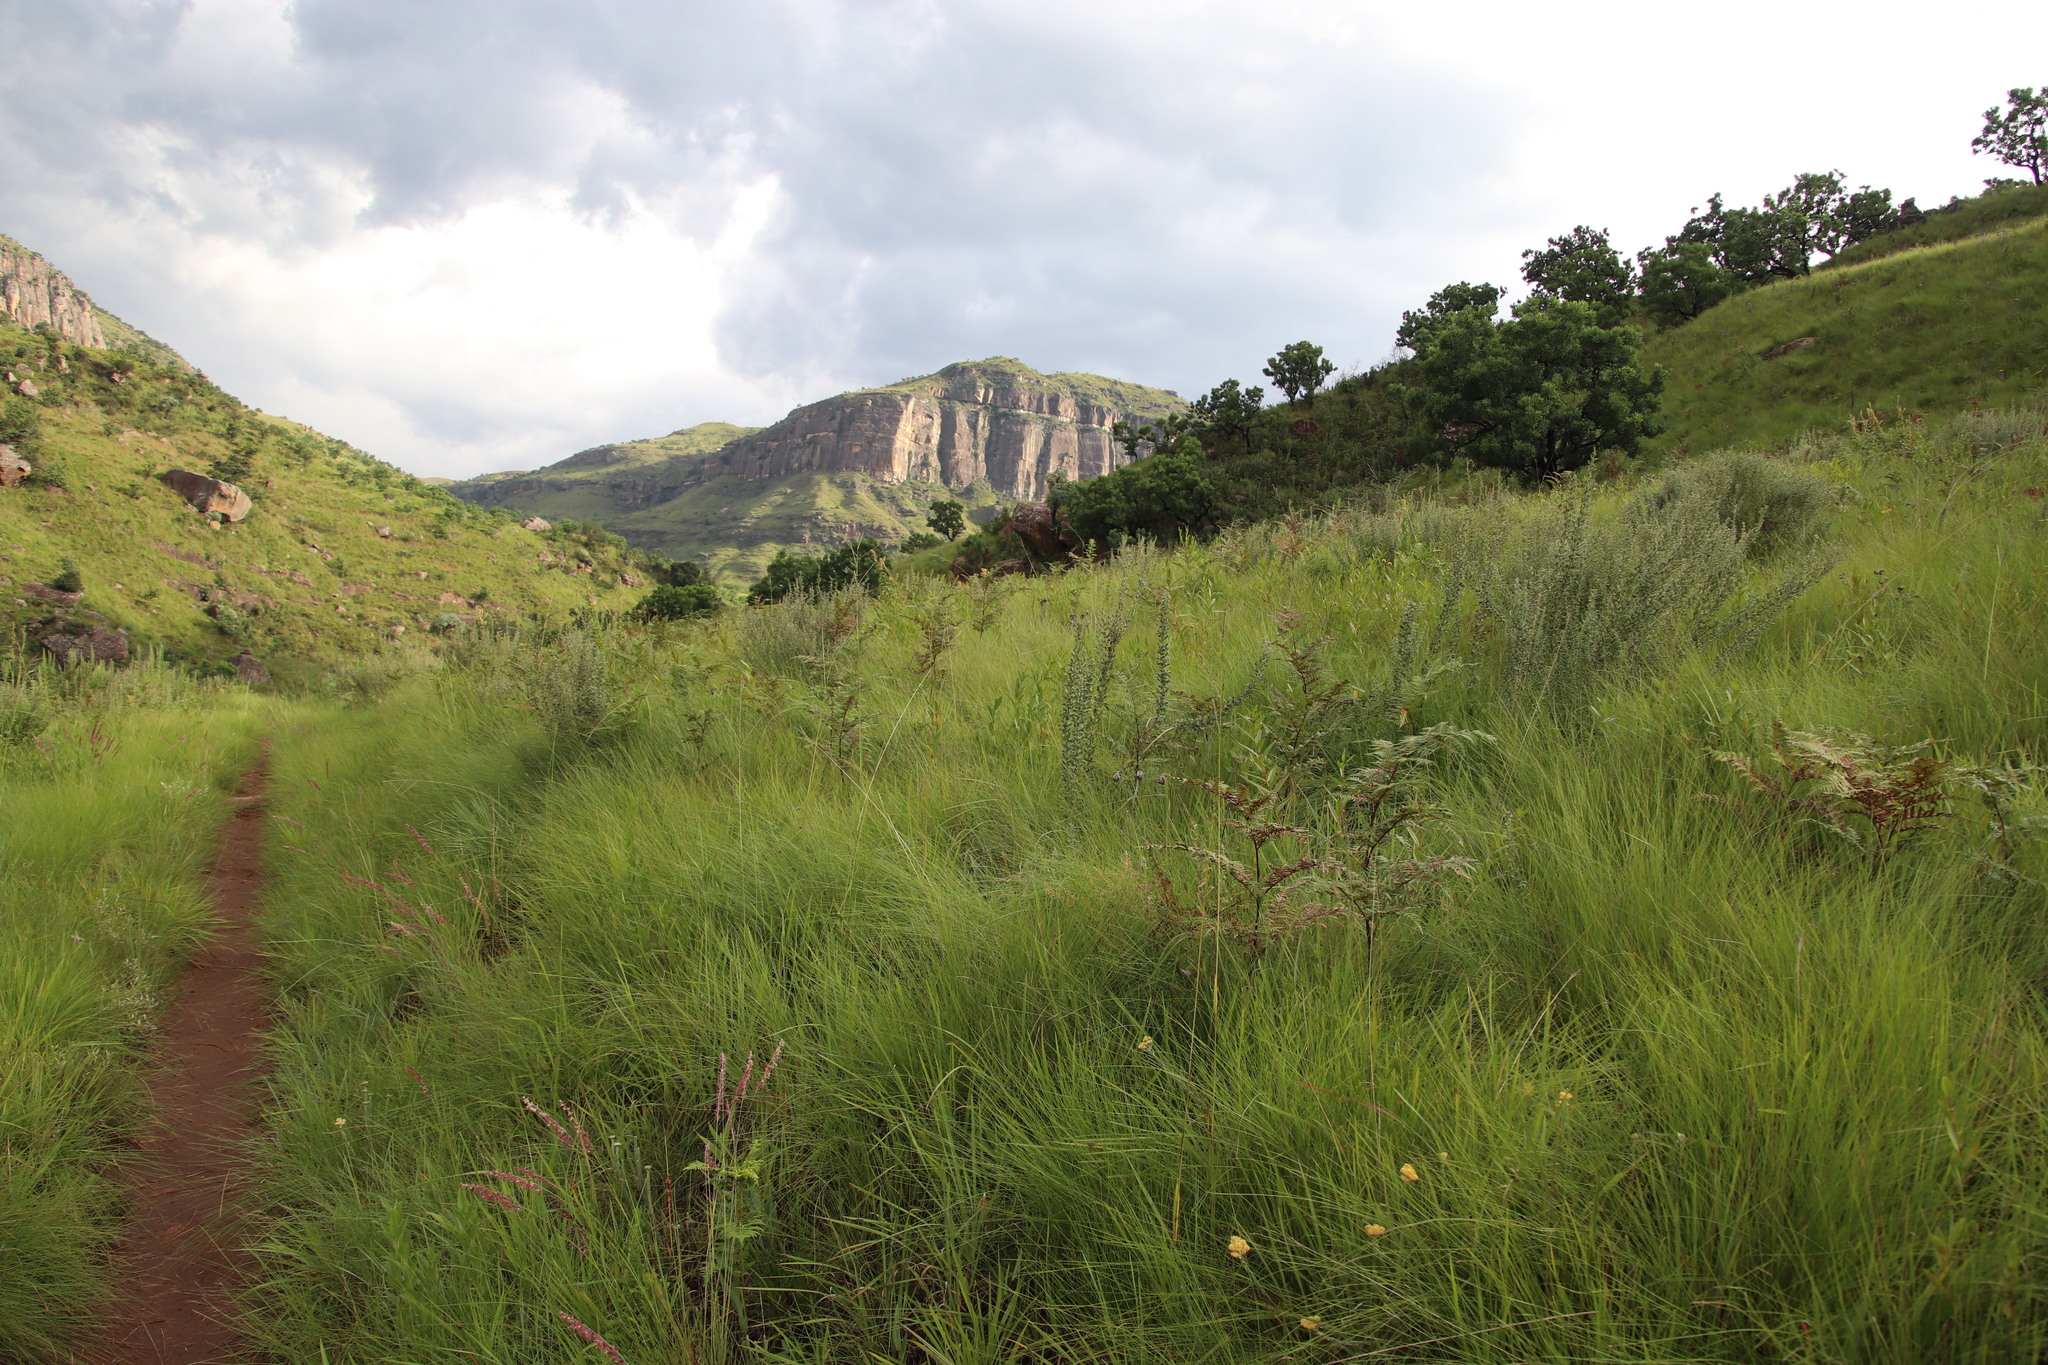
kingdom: Plantae
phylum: Tracheophyta
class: Magnoliopsida
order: Fabales
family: Fabaceae
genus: Lotononis
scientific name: Lotononis lotononoides
